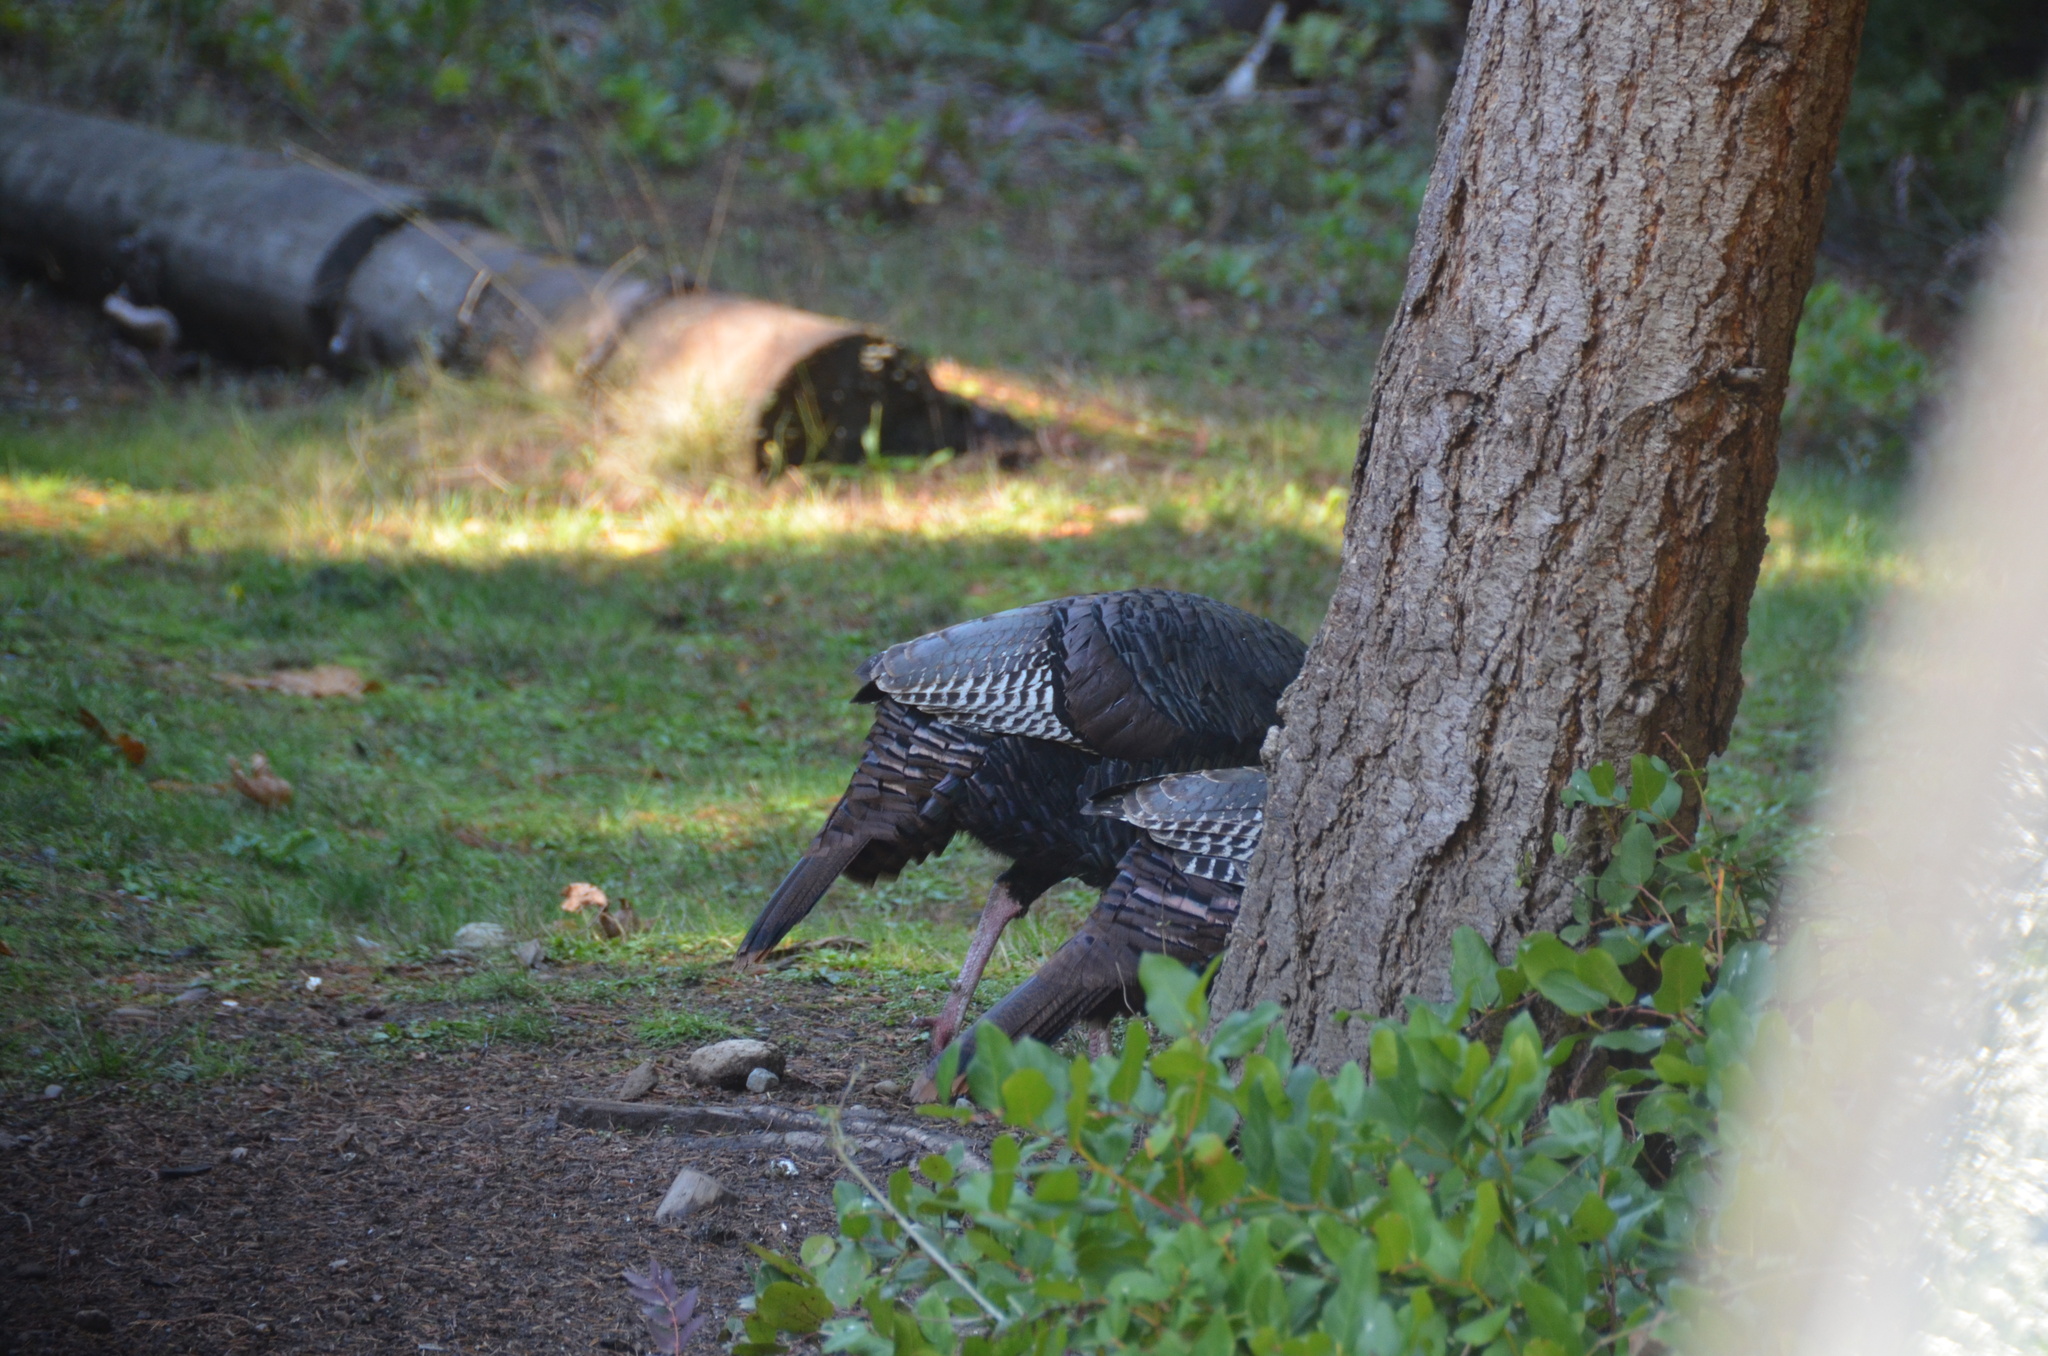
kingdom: Animalia
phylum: Chordata
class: Aves
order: Galliformes
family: Phasianidae
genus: Meleagris
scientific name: Meleagris gallopavo
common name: Wild turkey
